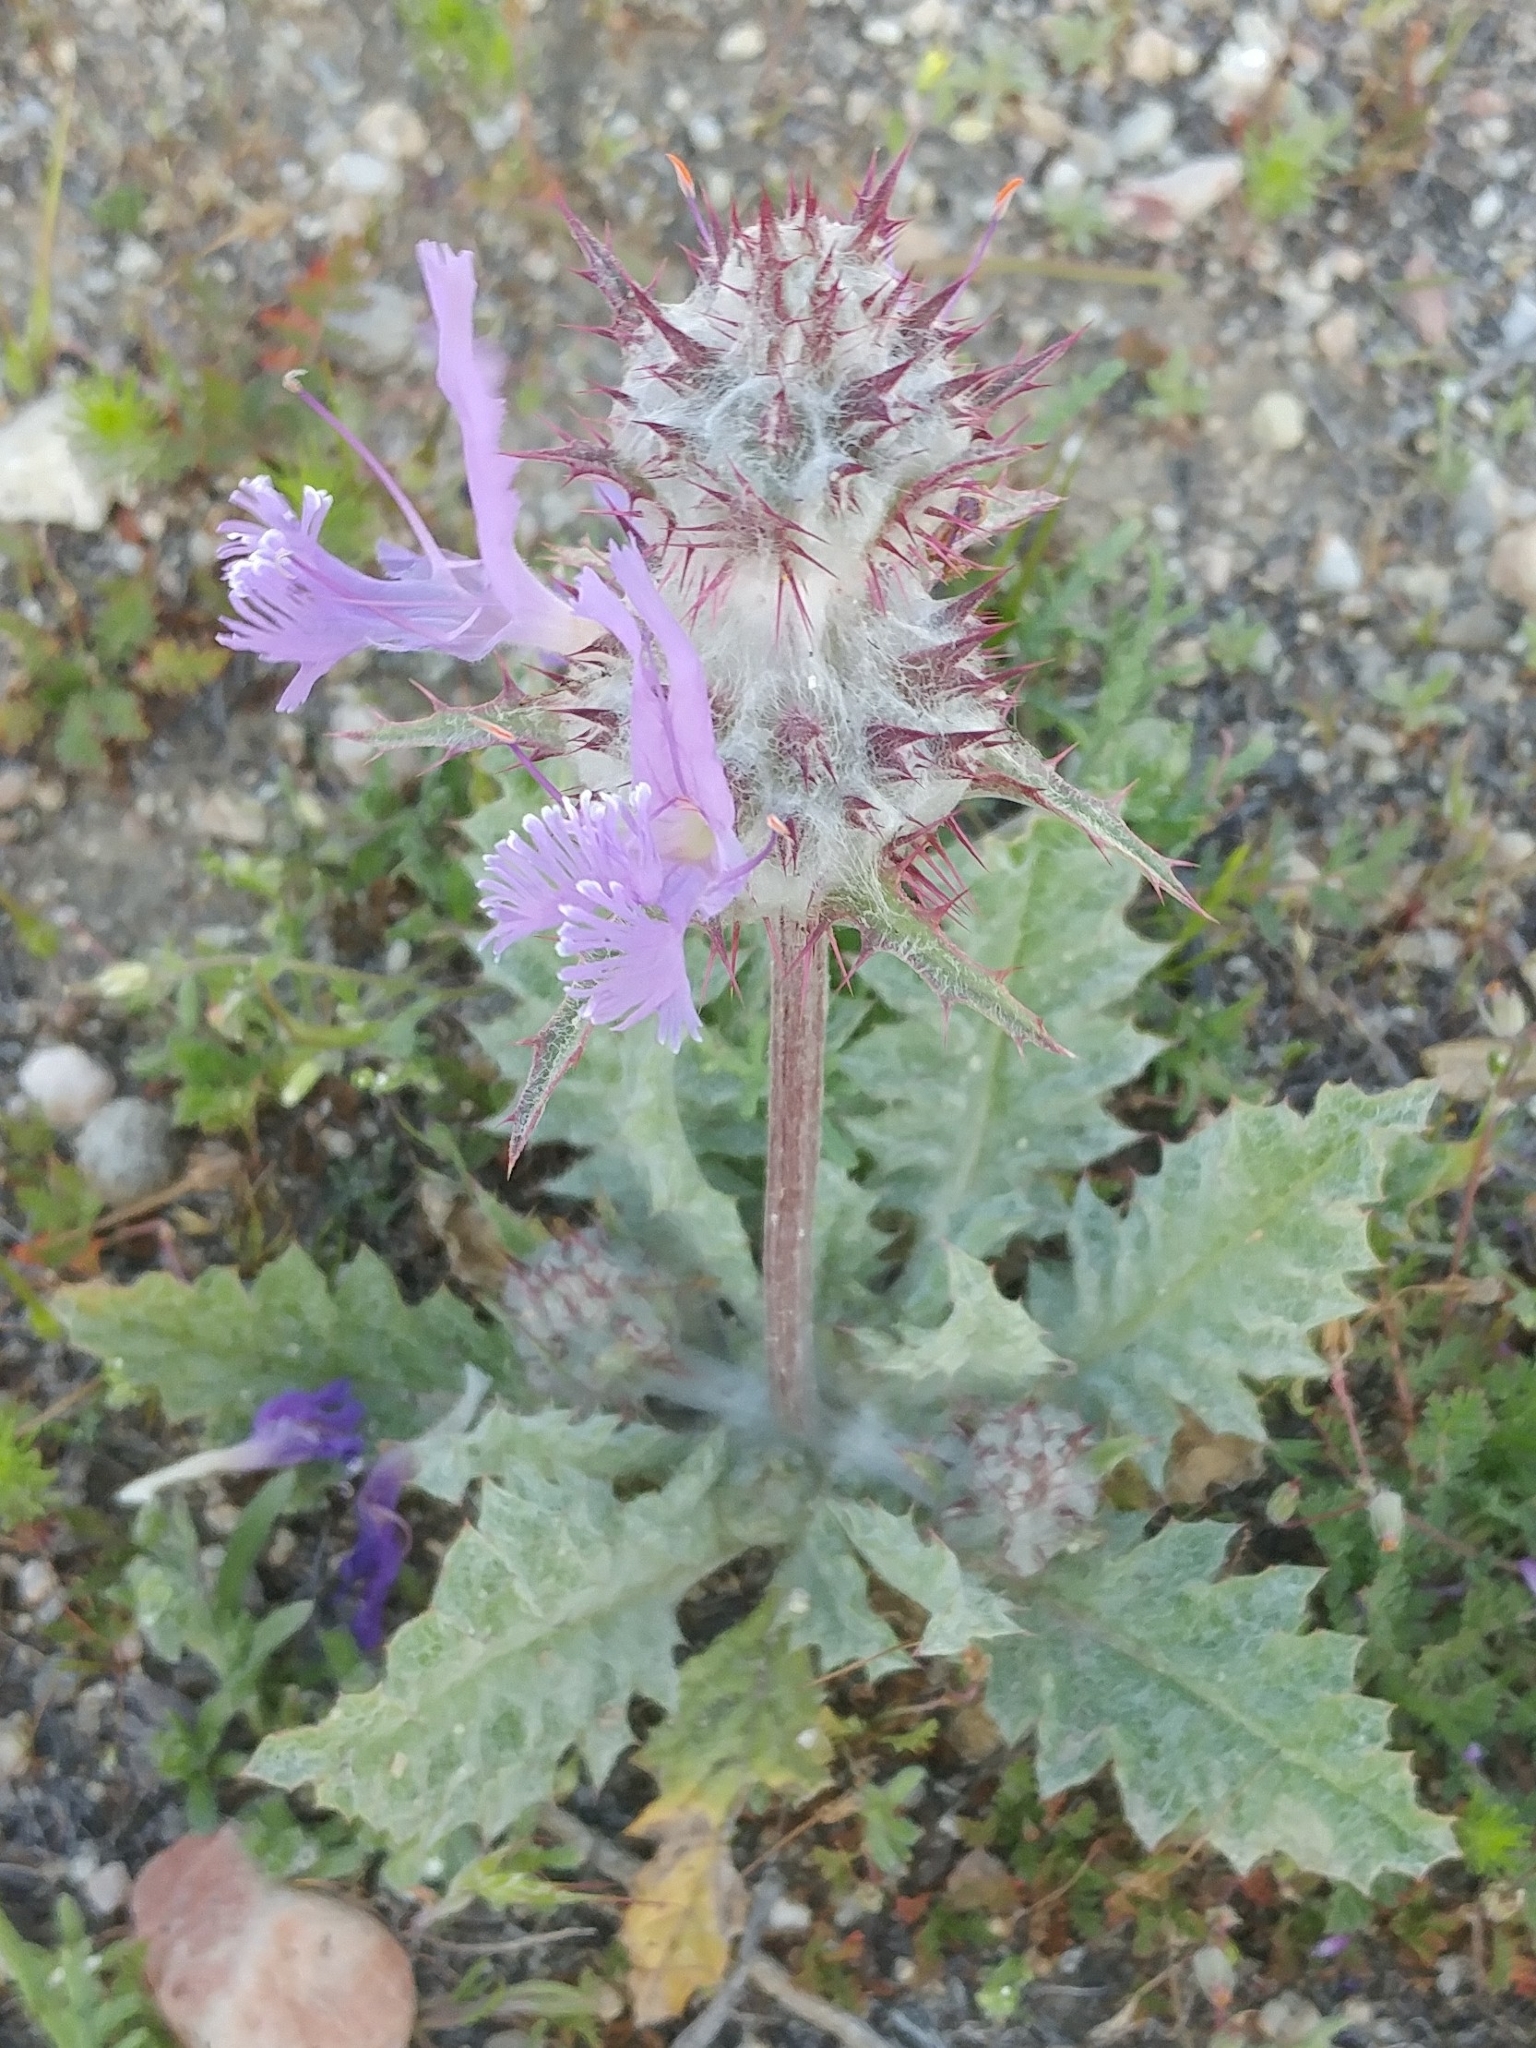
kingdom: Plantae
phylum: Tracheophyta
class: Magnoliopsida
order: Lamiales
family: Lamiaceae
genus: Salvia
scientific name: Salvia carduacea
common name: Thistle sage
